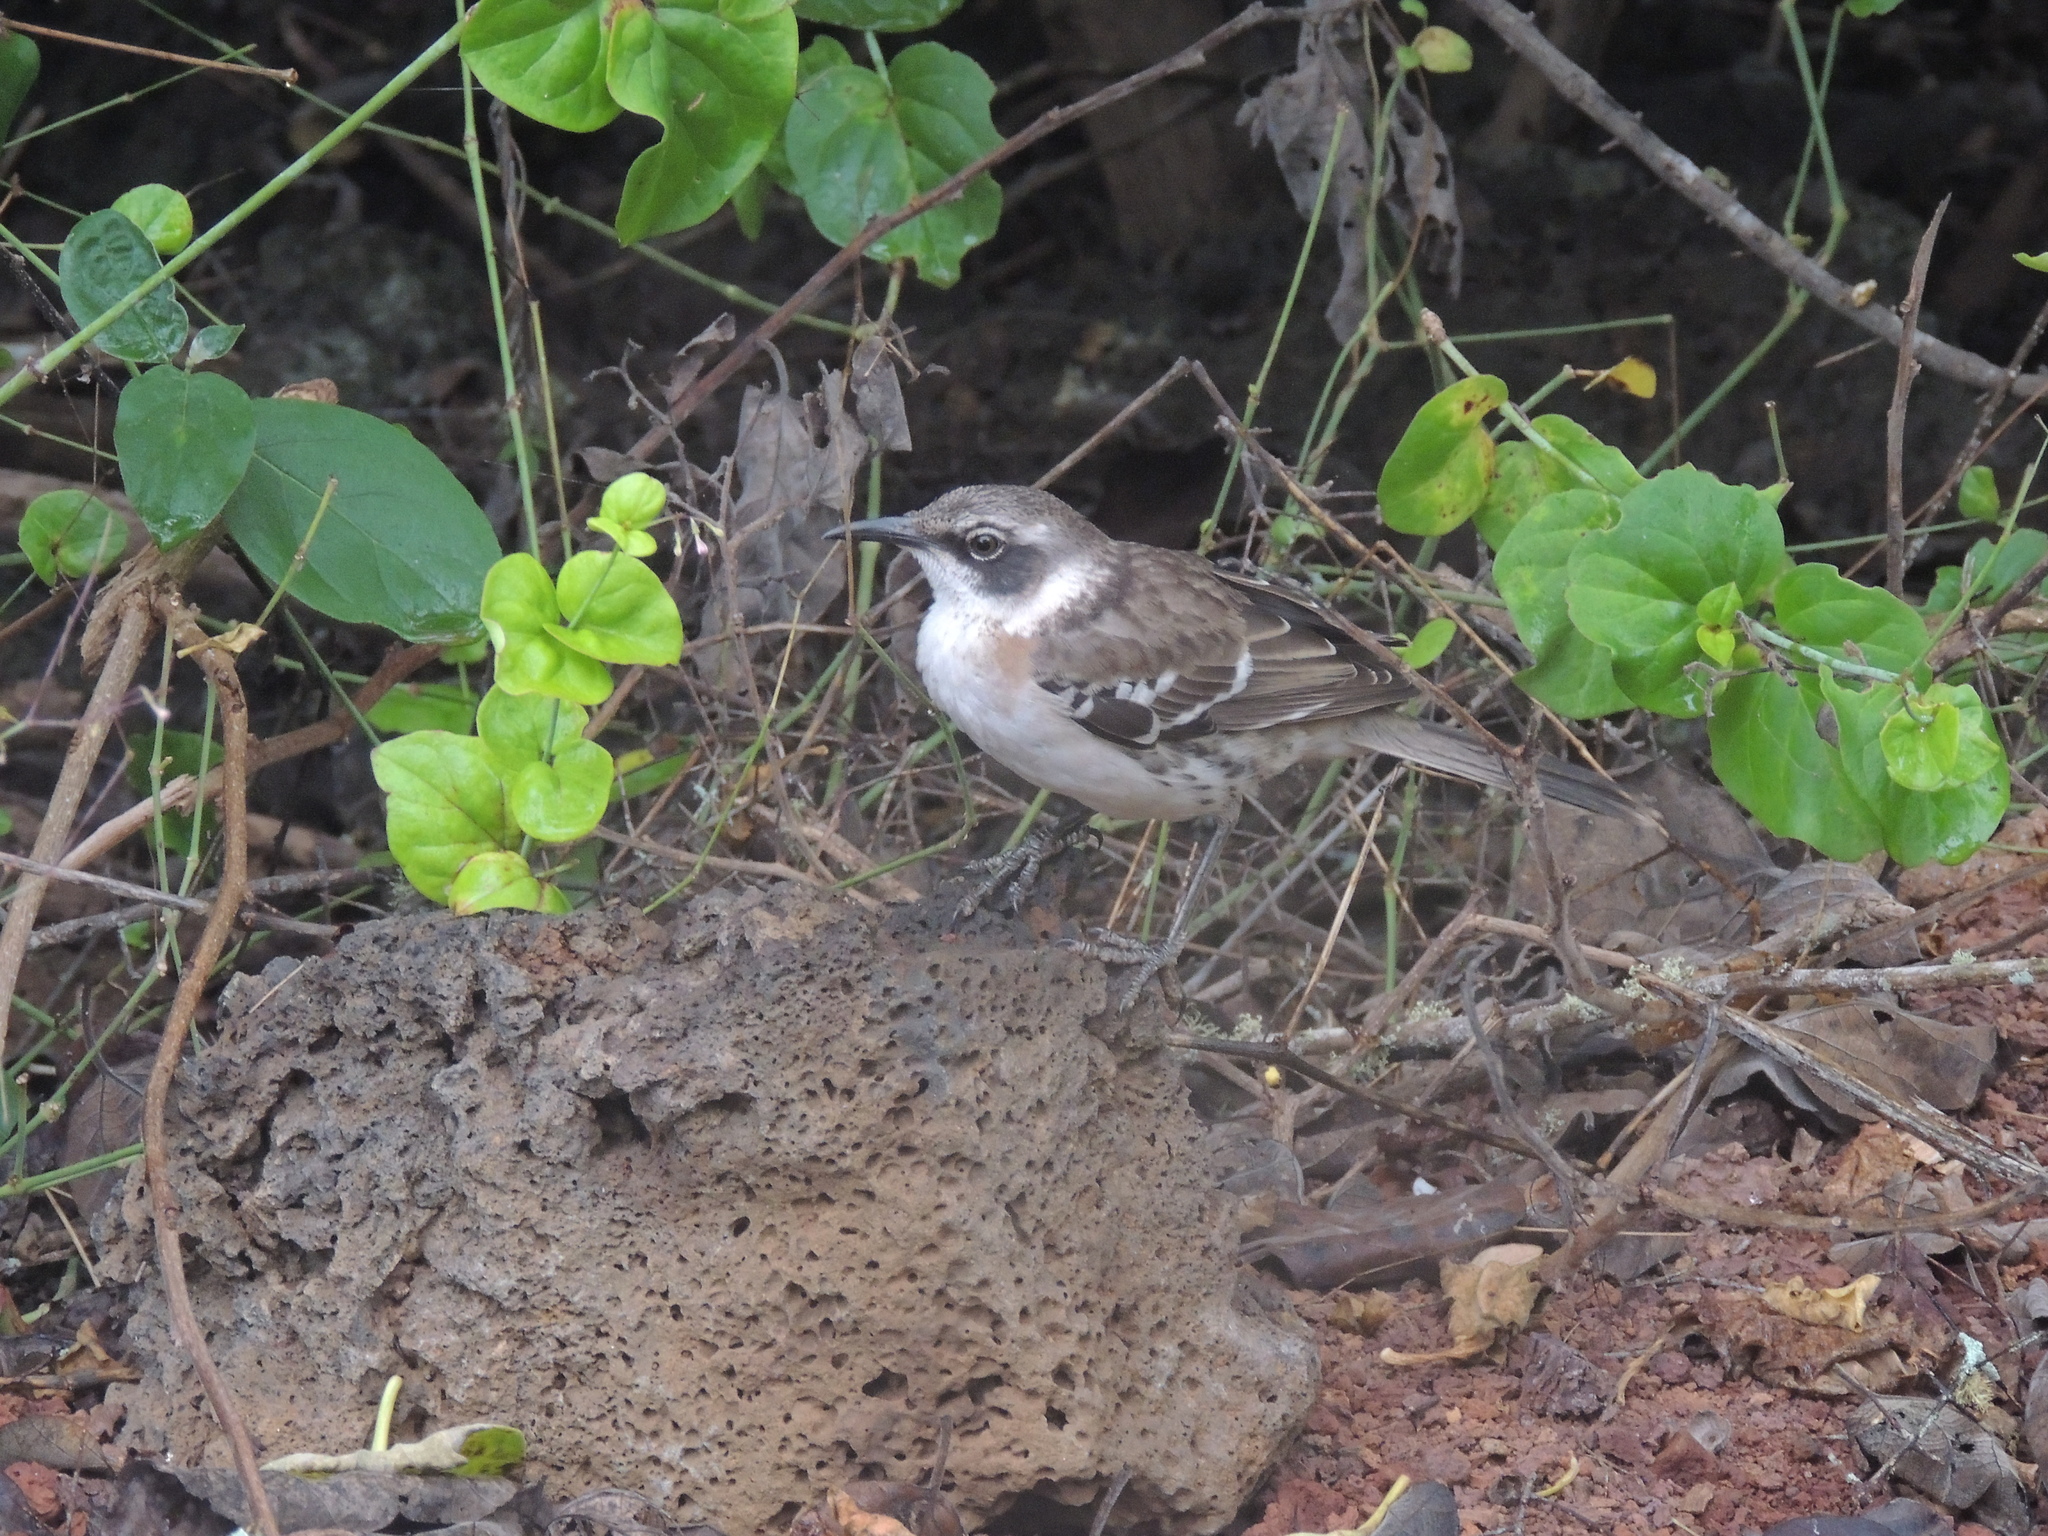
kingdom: Animalia
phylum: Chordata
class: Aves
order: Passeriformes
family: Mimidae
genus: Mimus
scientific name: Mimus parvulus
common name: Galapagos mockingbird
